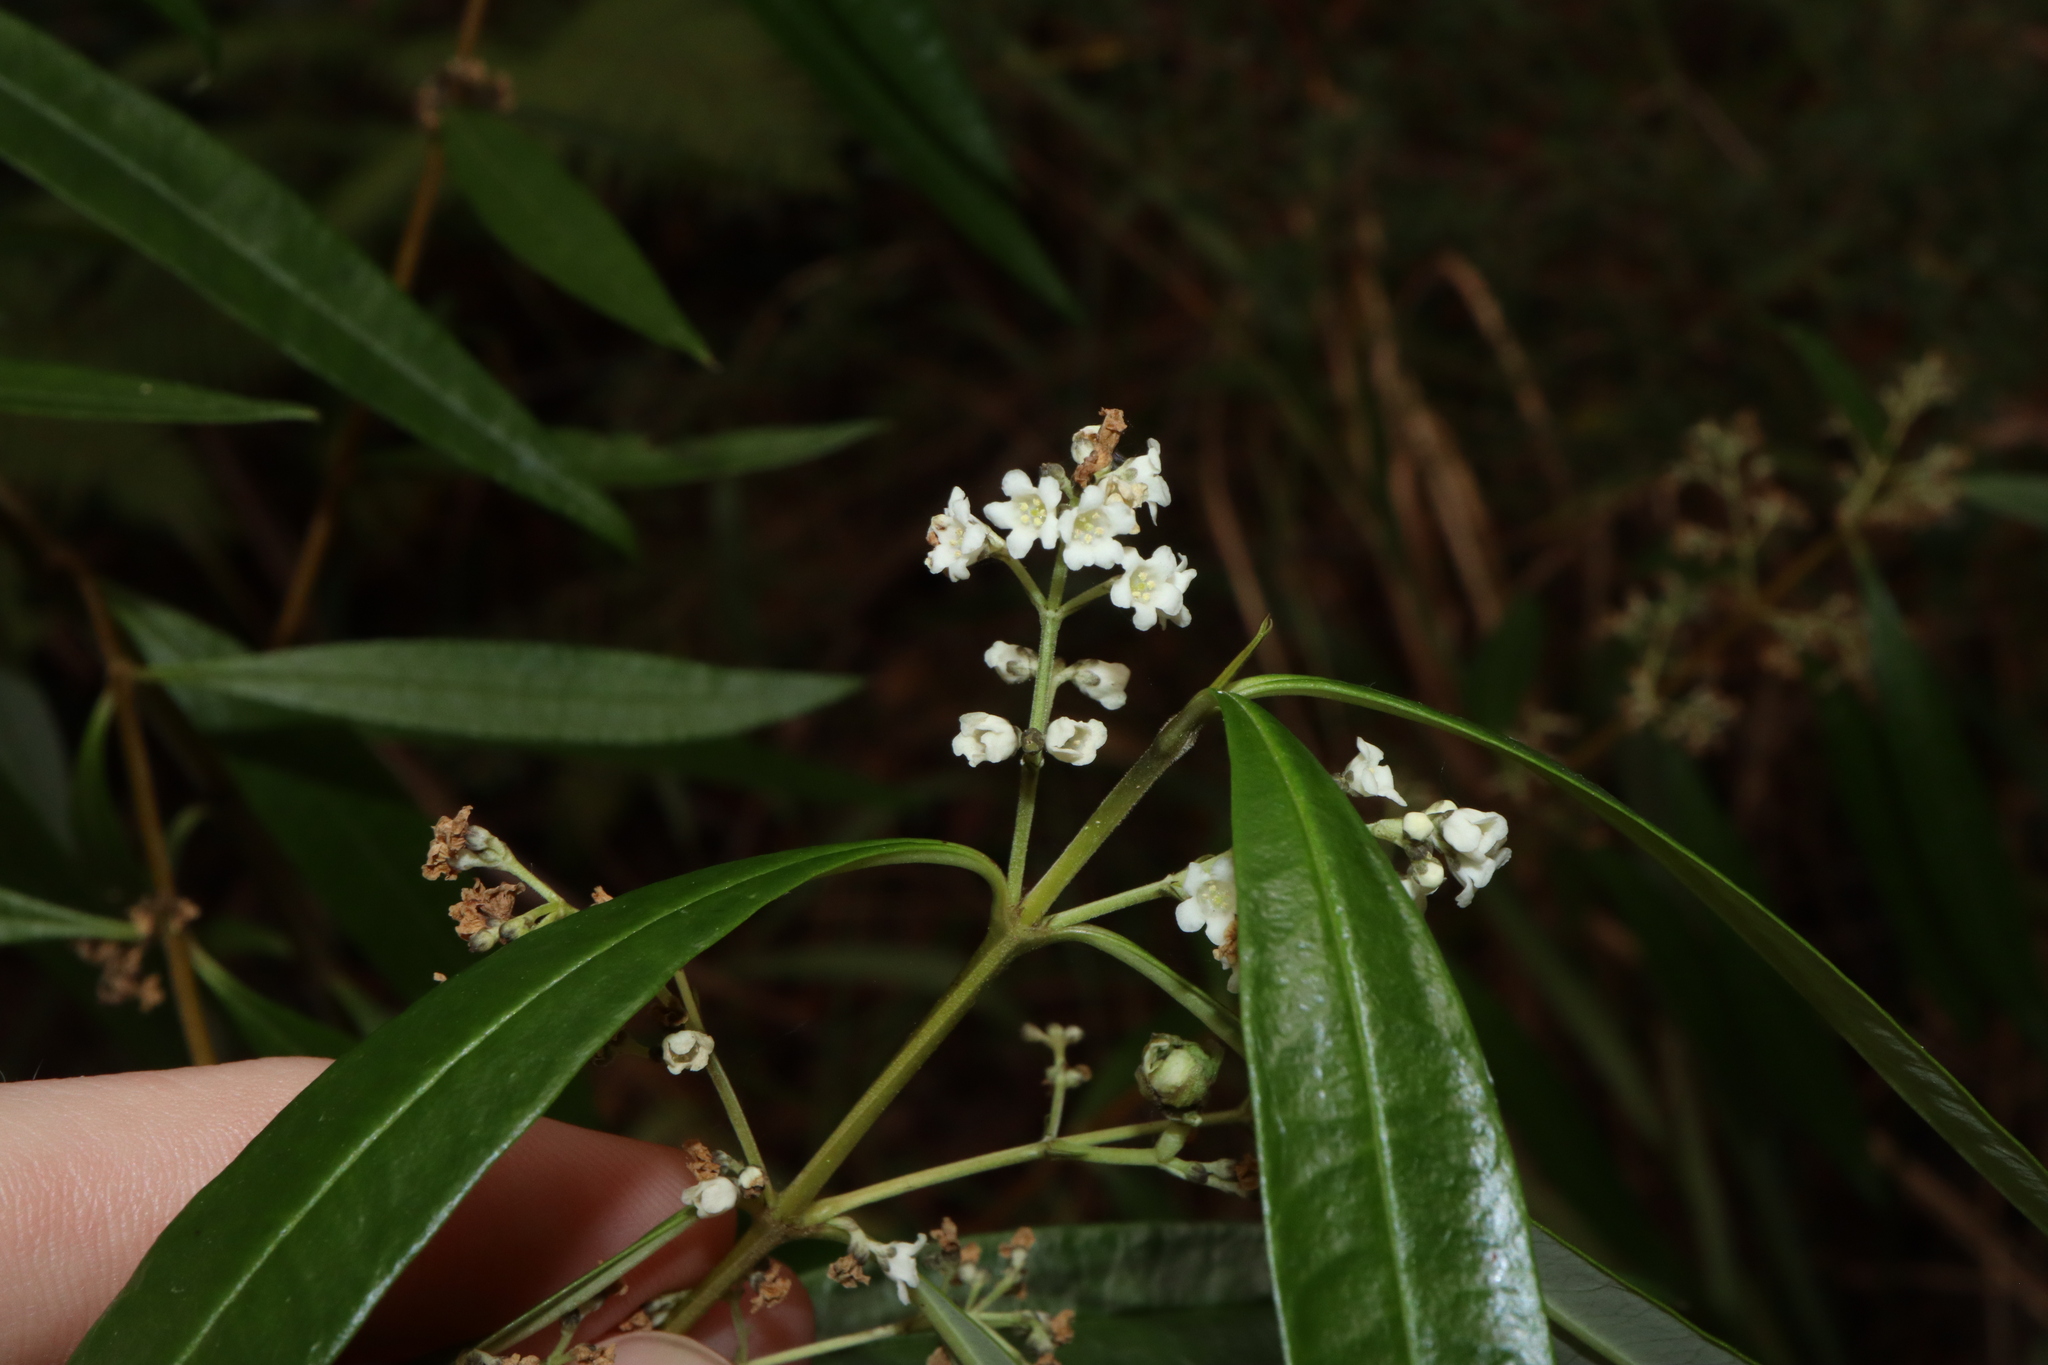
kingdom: Plantae
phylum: Tracheophyta
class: Magnoliopsida
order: Gentianales
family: Loganiaceae
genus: Logania
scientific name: Logania albiflora
